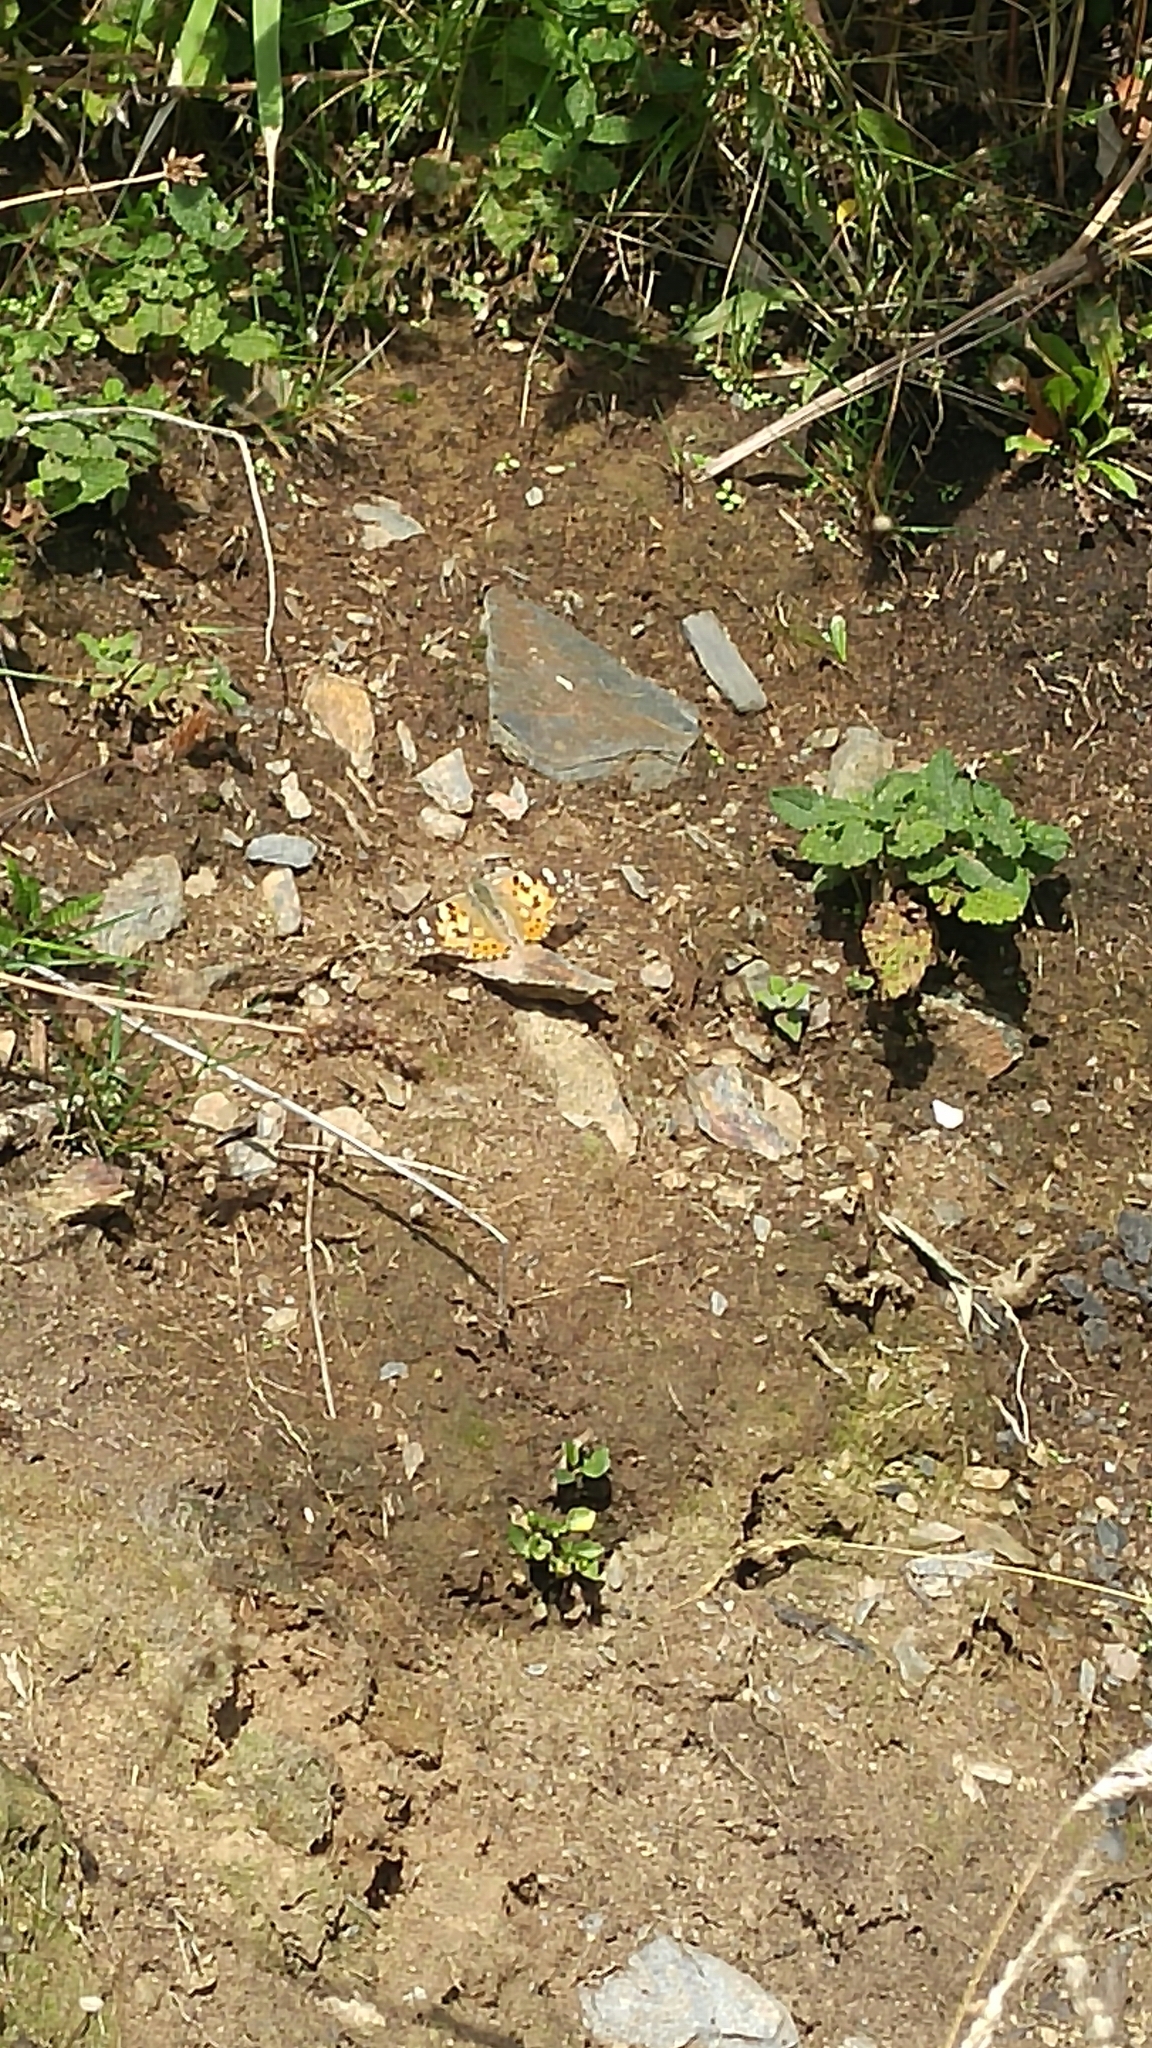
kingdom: Animalia
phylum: Arthropoda
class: Insecta
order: Lepidoptera
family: Nymphalidae
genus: Vanessa
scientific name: Vanessa cardui
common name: Painted lady
